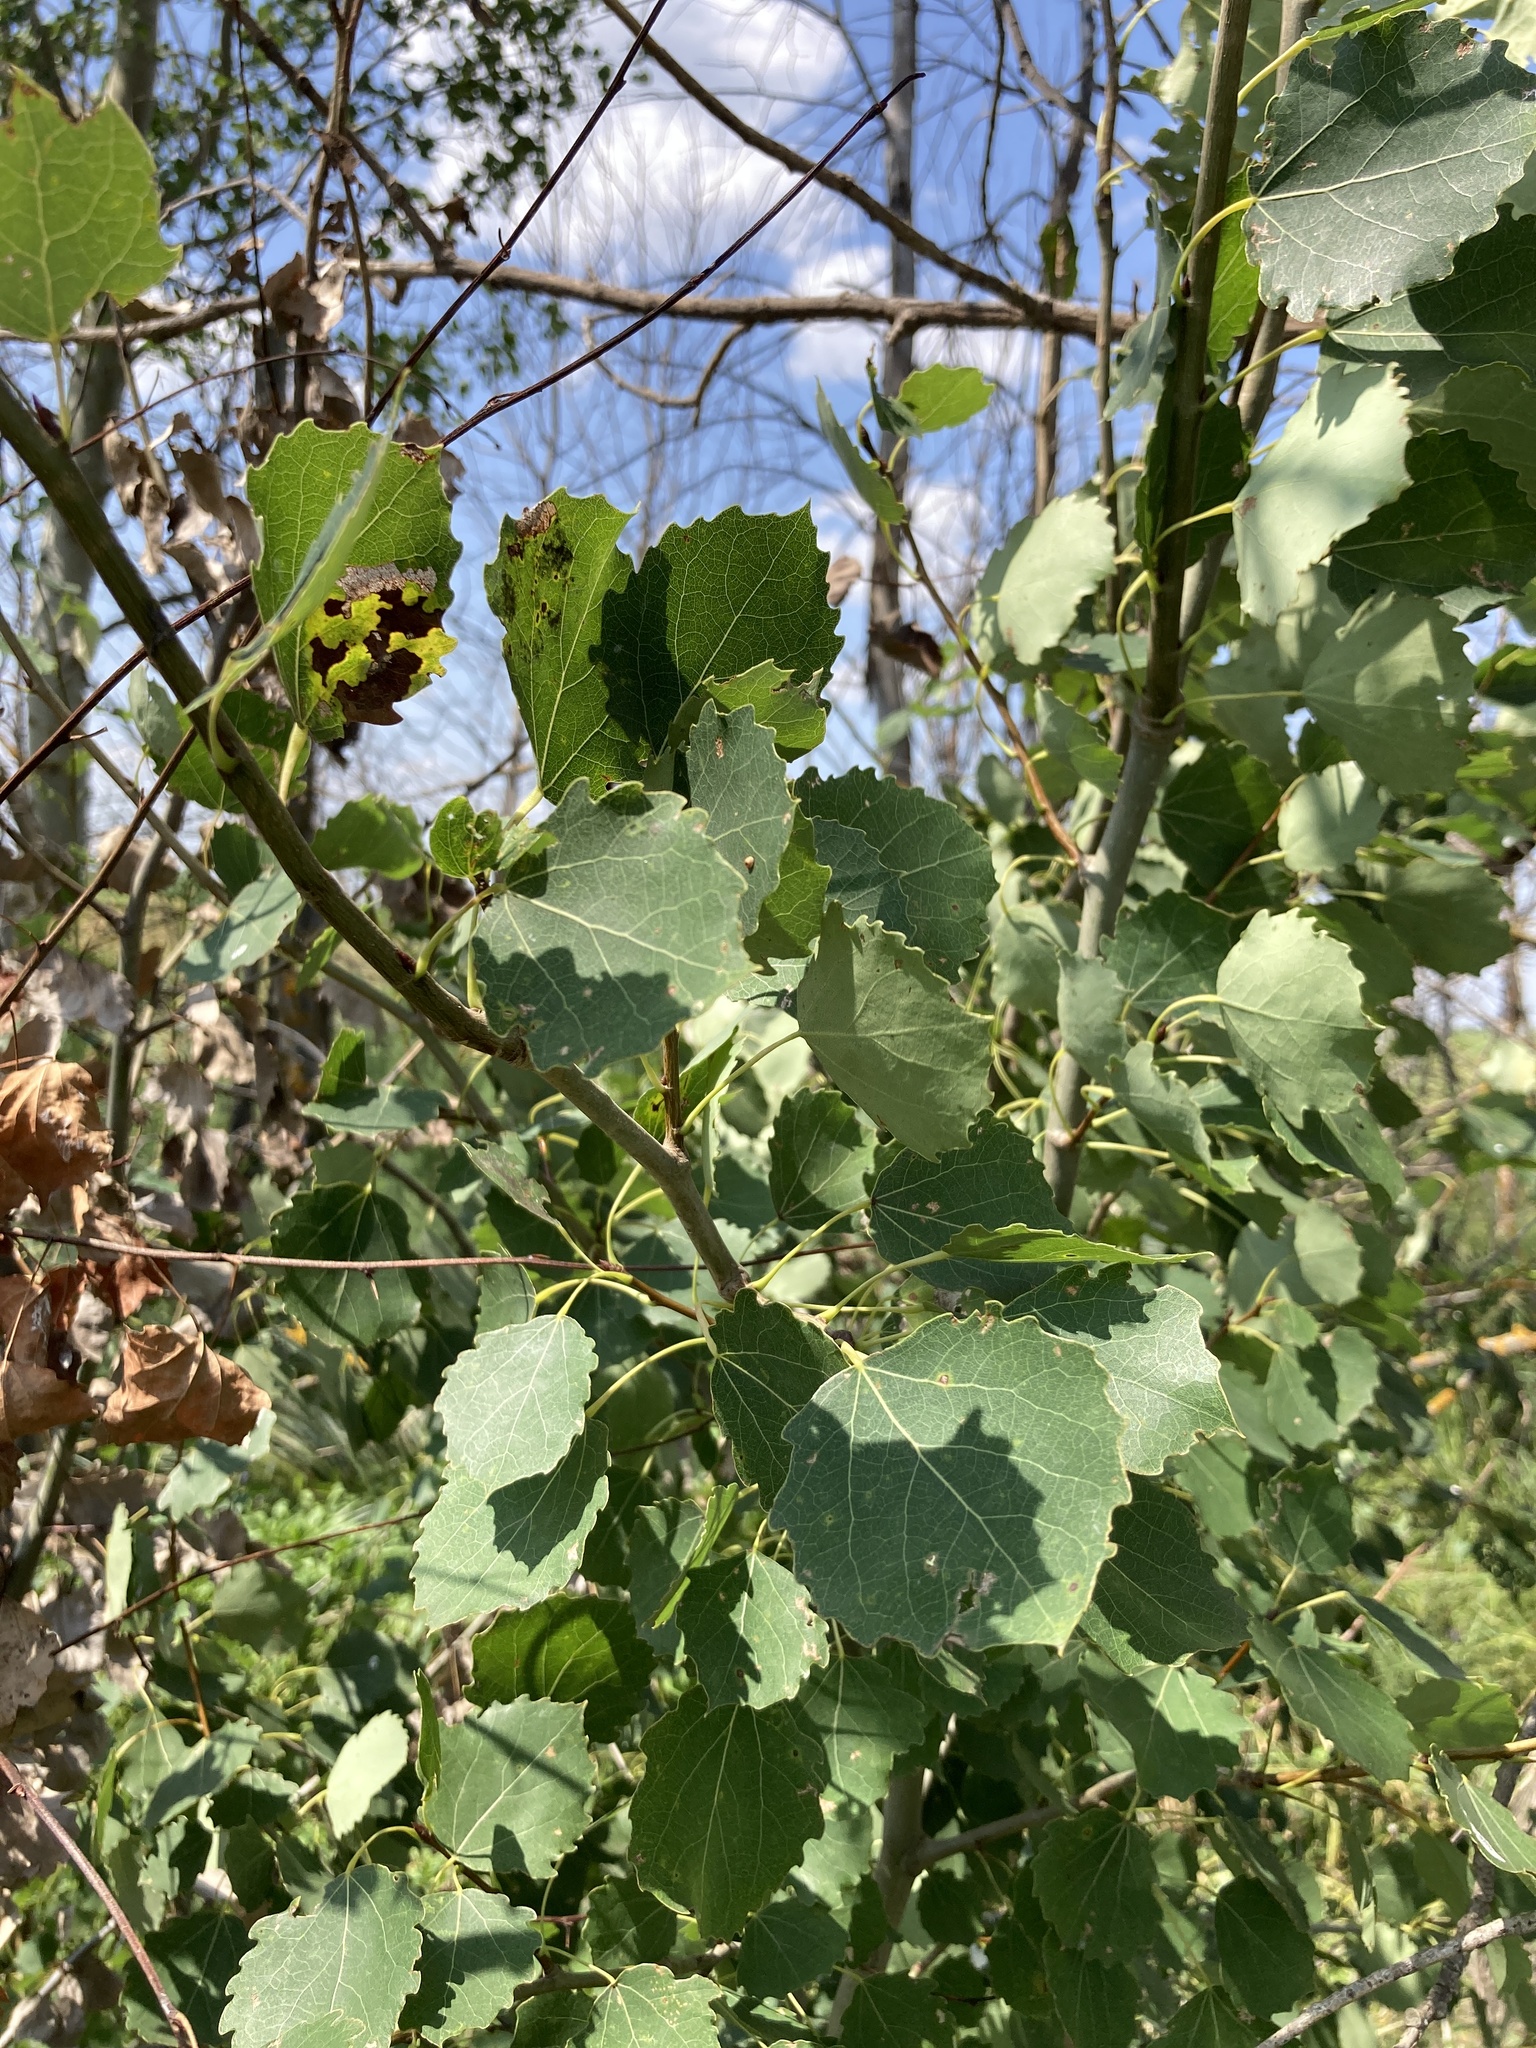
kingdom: Plantae
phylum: Tracheophyta
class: Magnoliopsida
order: Malpighiales
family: Salicaceae
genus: Populus
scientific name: Populus tremula
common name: European aspen
